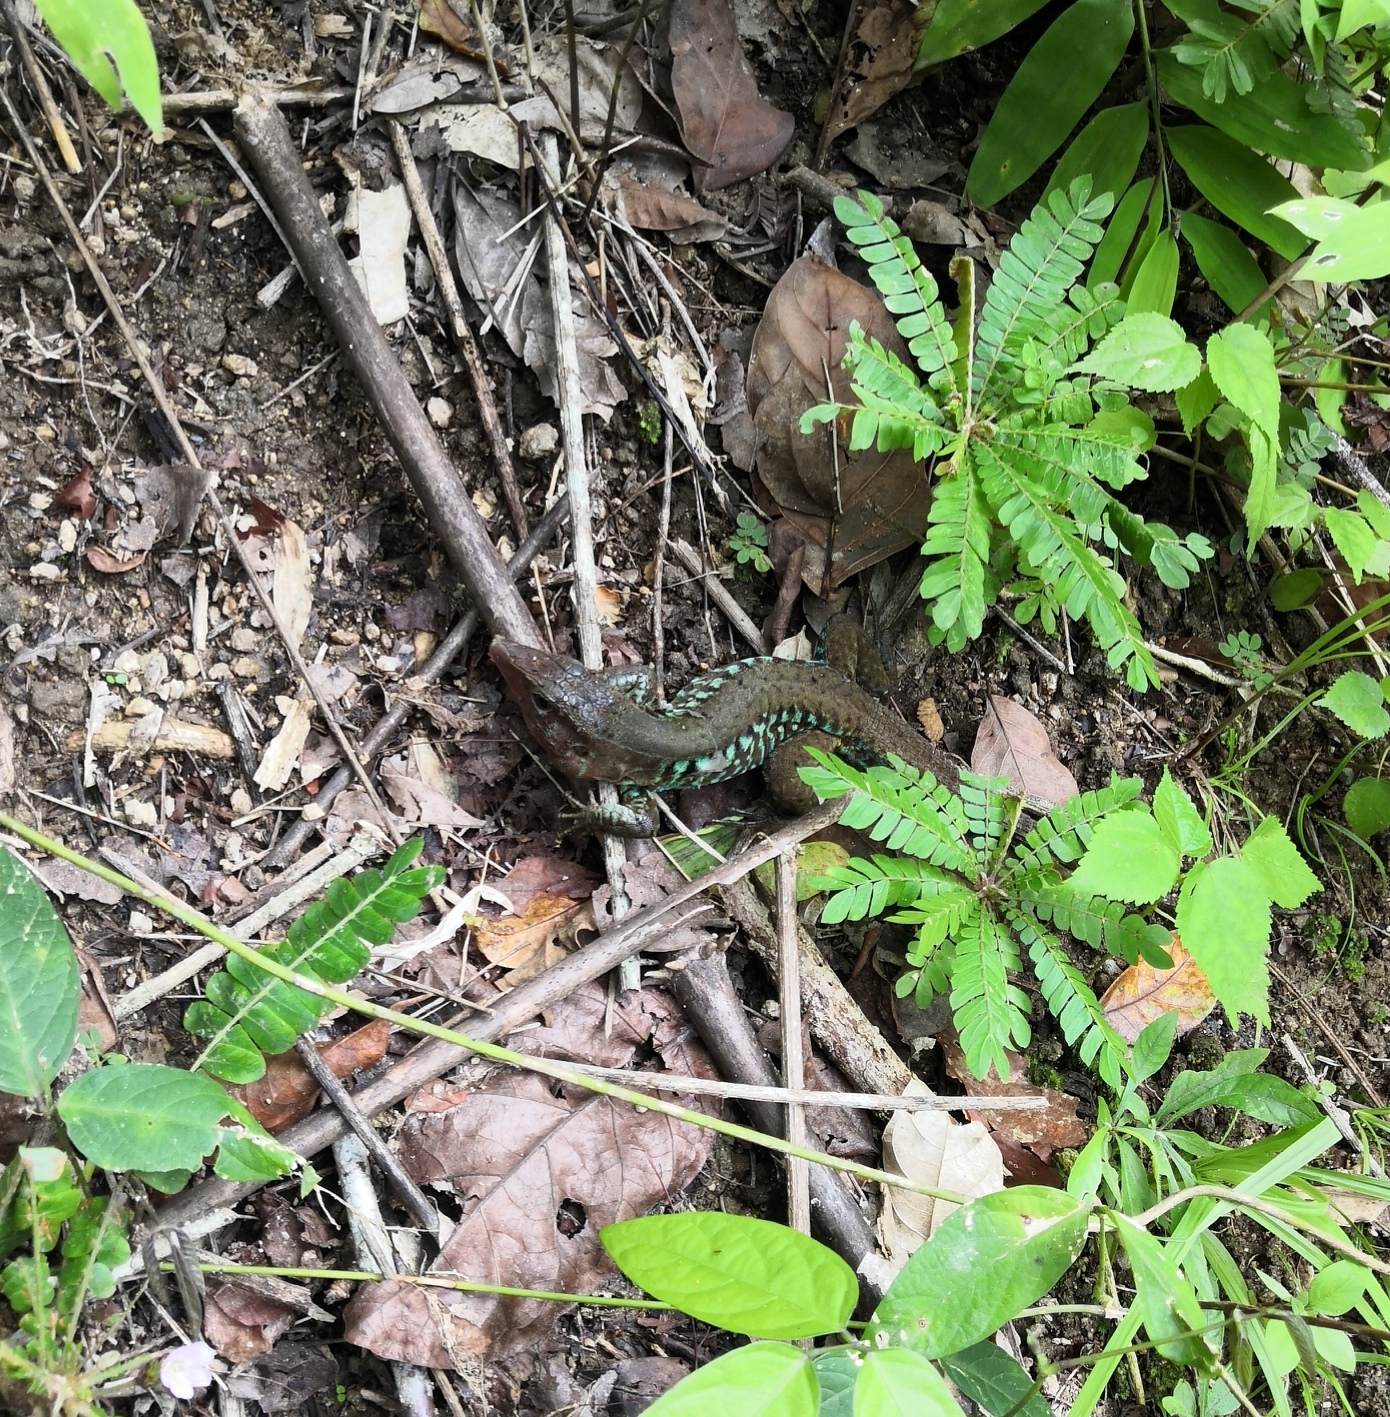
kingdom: Animalia
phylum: Chordata
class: Squamata
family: Teiidae
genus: Holcosus
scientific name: Holcosus undulatus
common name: Rainbow ameiva
